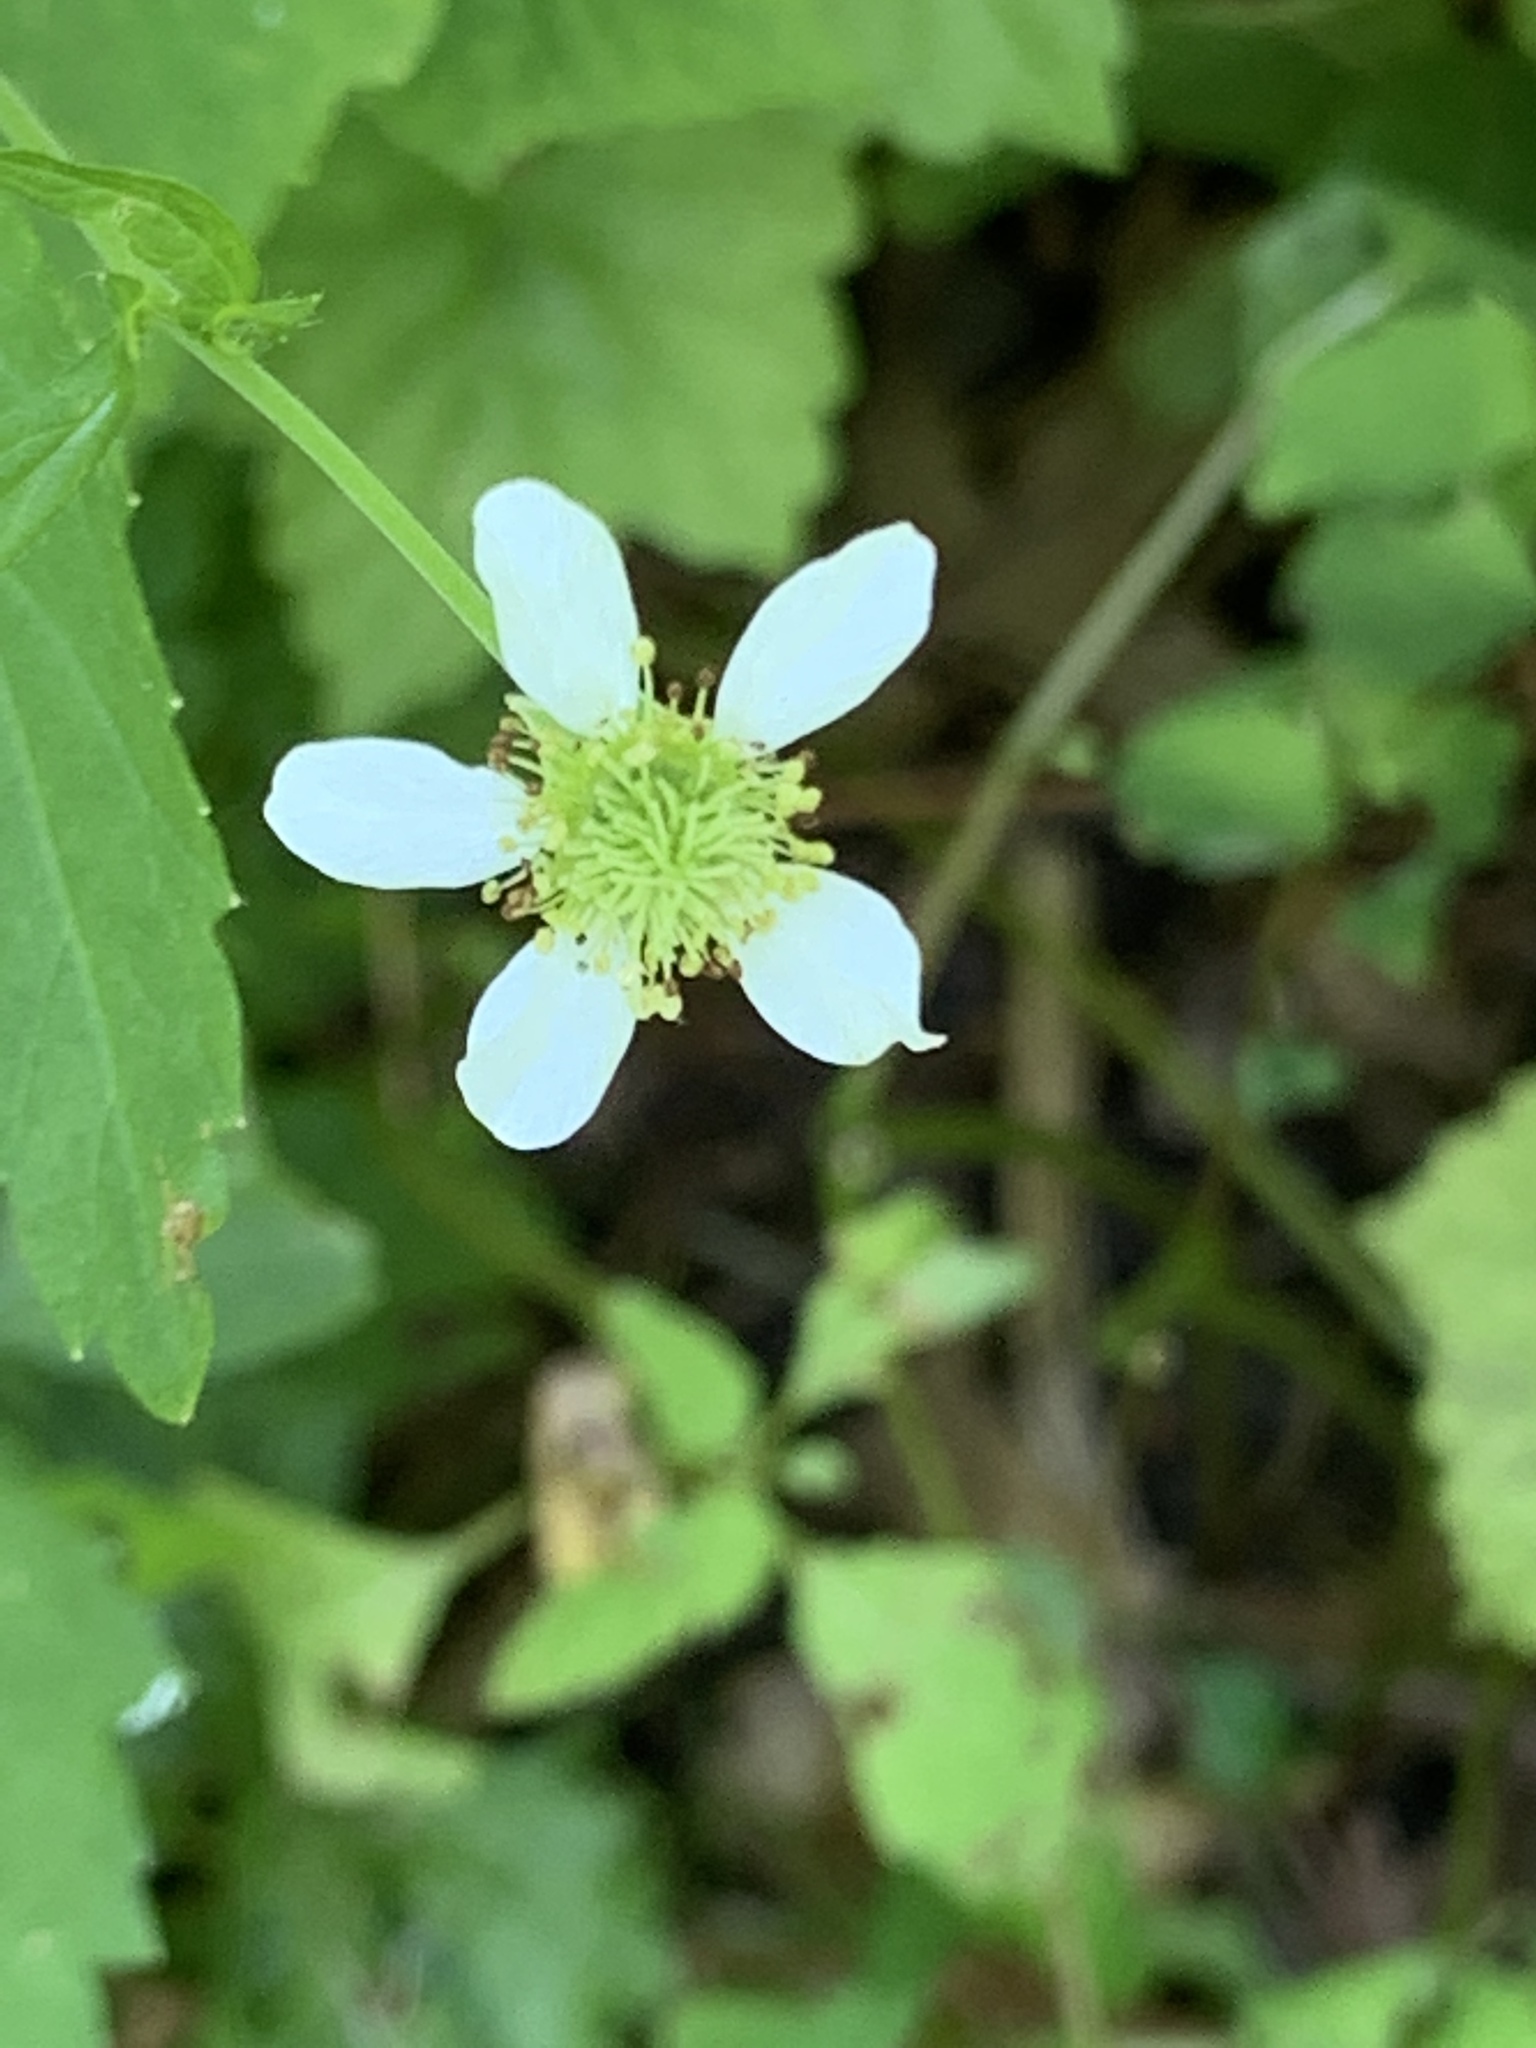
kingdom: Plantae
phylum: Tracheophyta
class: Magnoliopsida
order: Rosales
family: Rosaceae
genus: Geum
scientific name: Geum canadense
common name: White avens
